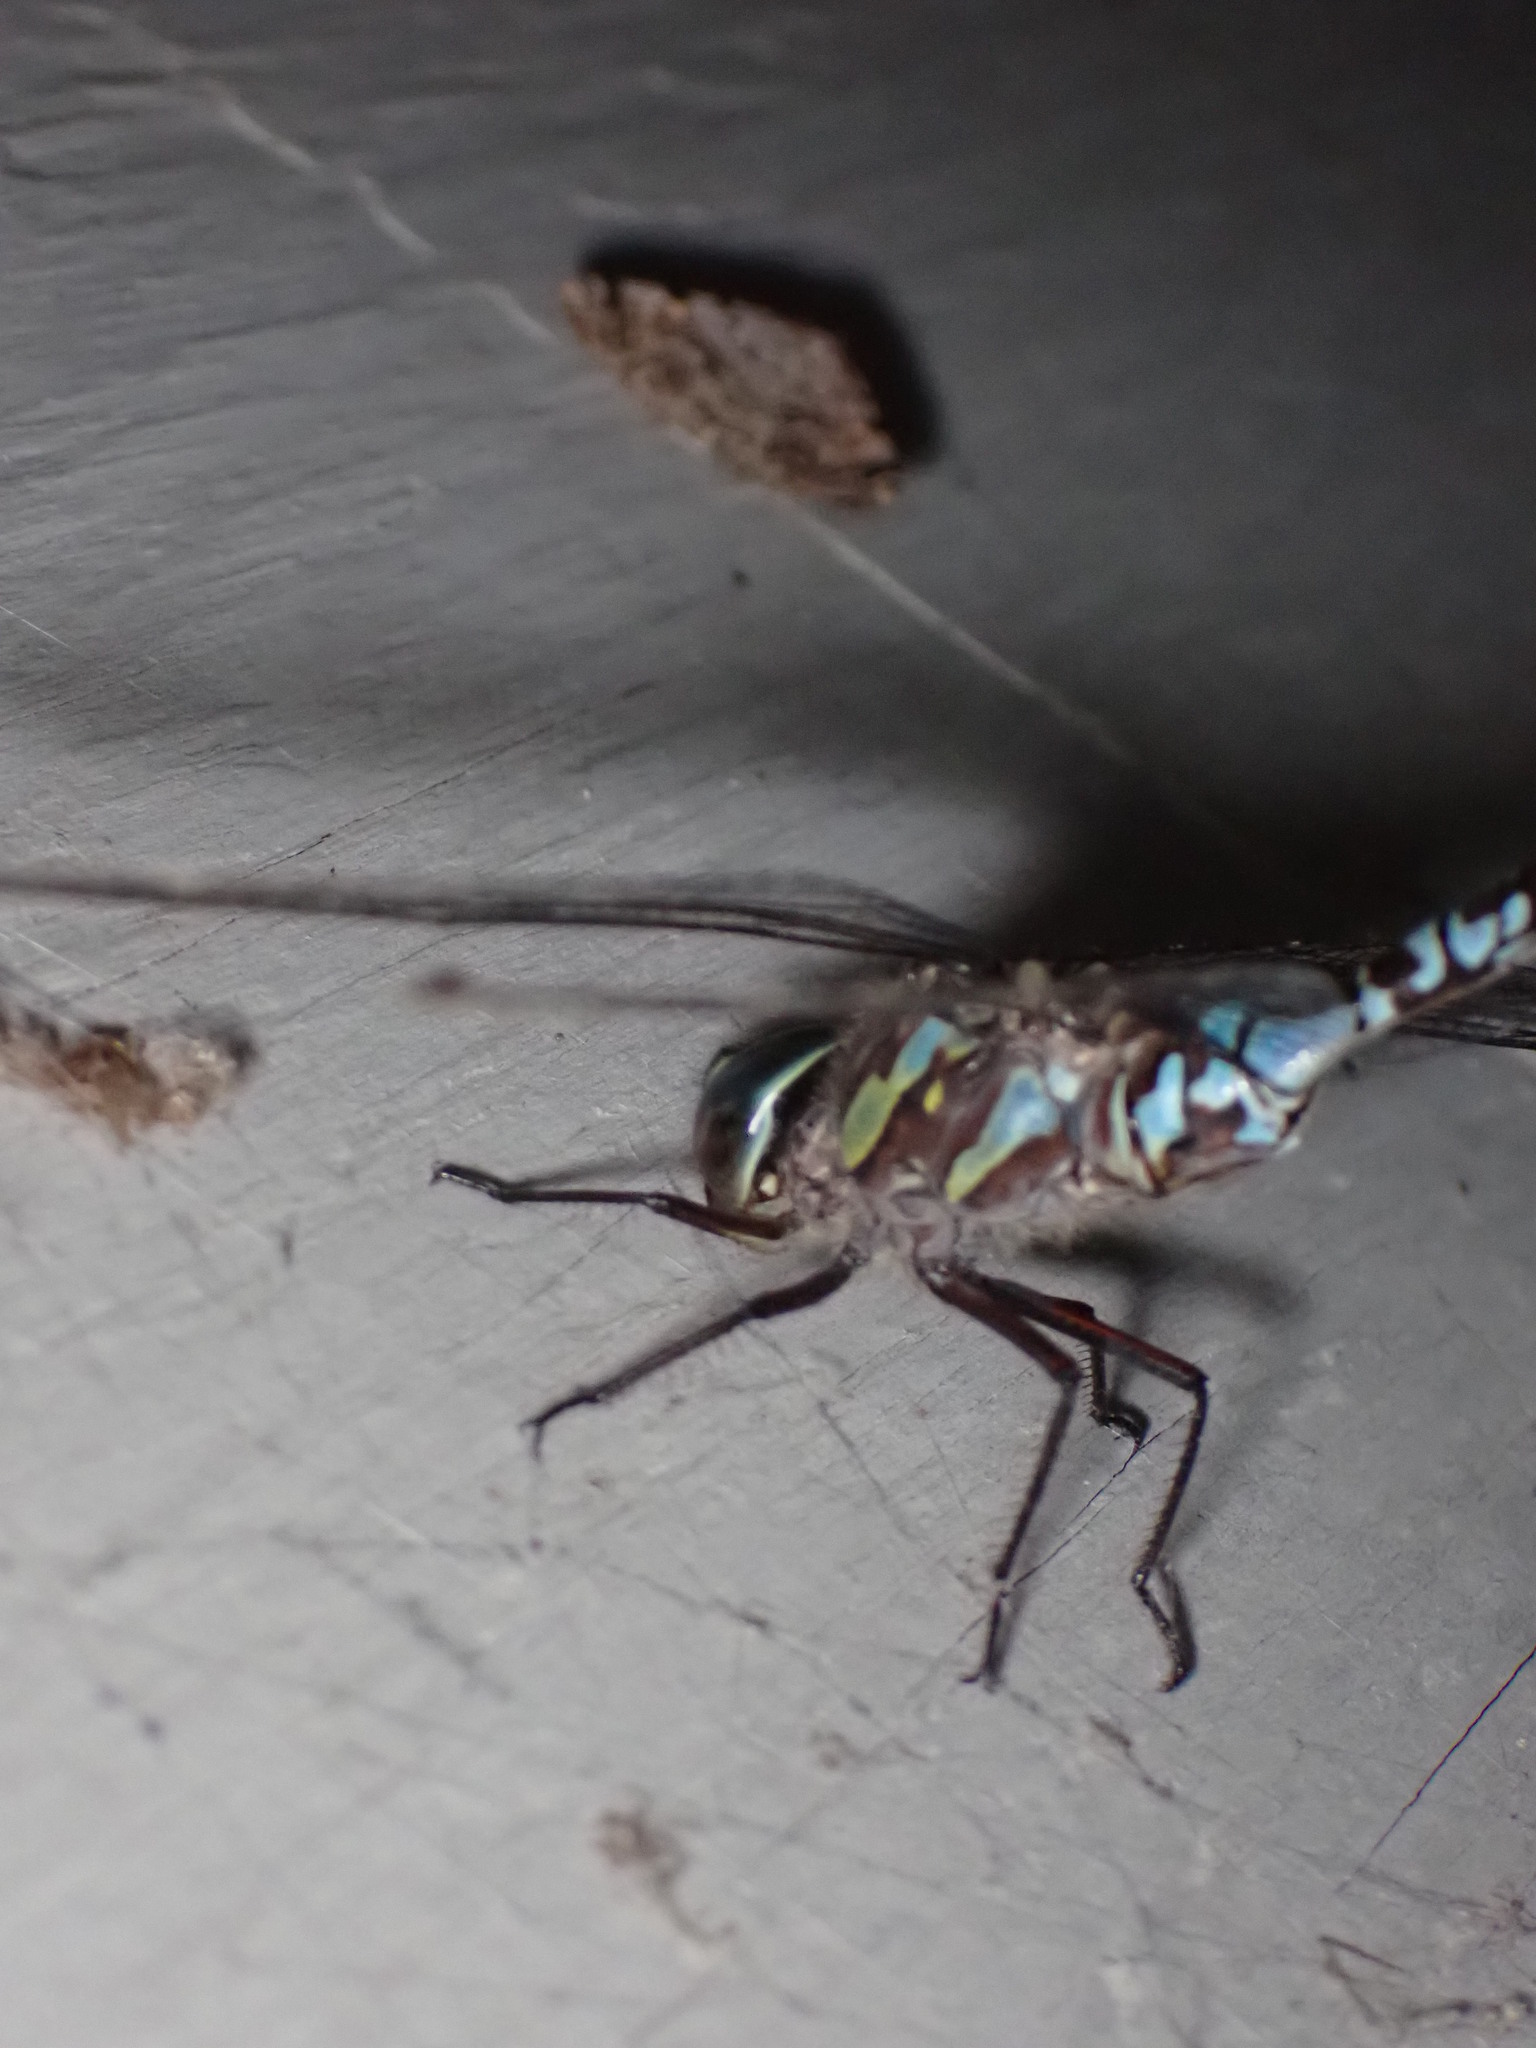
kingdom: Animalia
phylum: Arthropoda
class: Insecta
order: Odonata
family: Aeshnidae
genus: Aeshna
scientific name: Aeshna canadensis
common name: Canada darner
